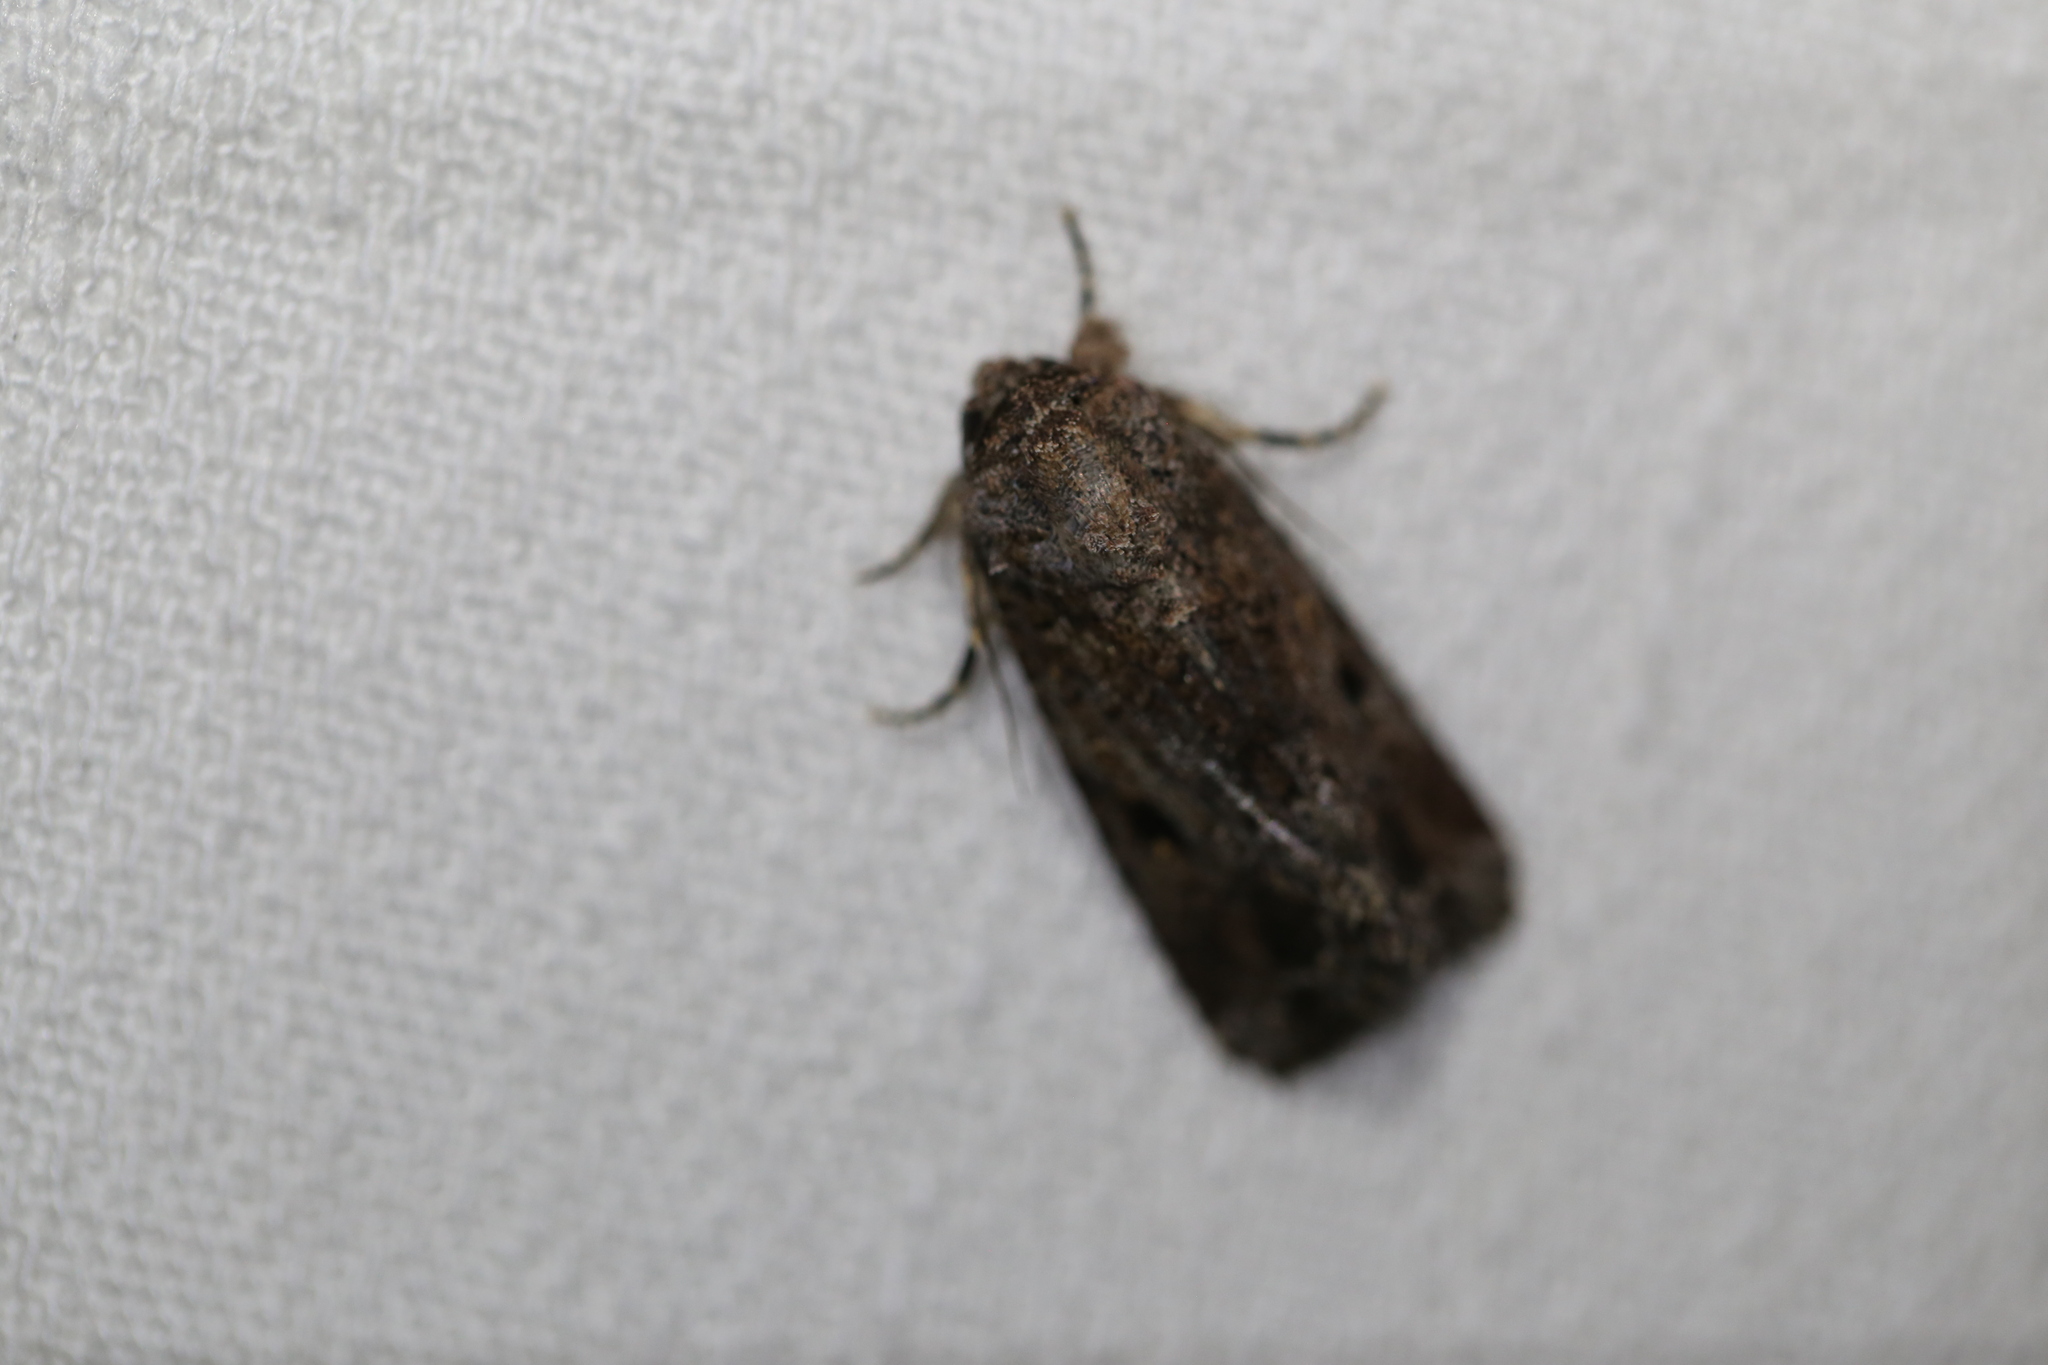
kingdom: Animalia
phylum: Arthropoda
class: Insecta
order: Lepidoptera
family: Noctuidae
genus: Spodoptera
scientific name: Spodoptera mauritia
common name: Lawn armyworm
